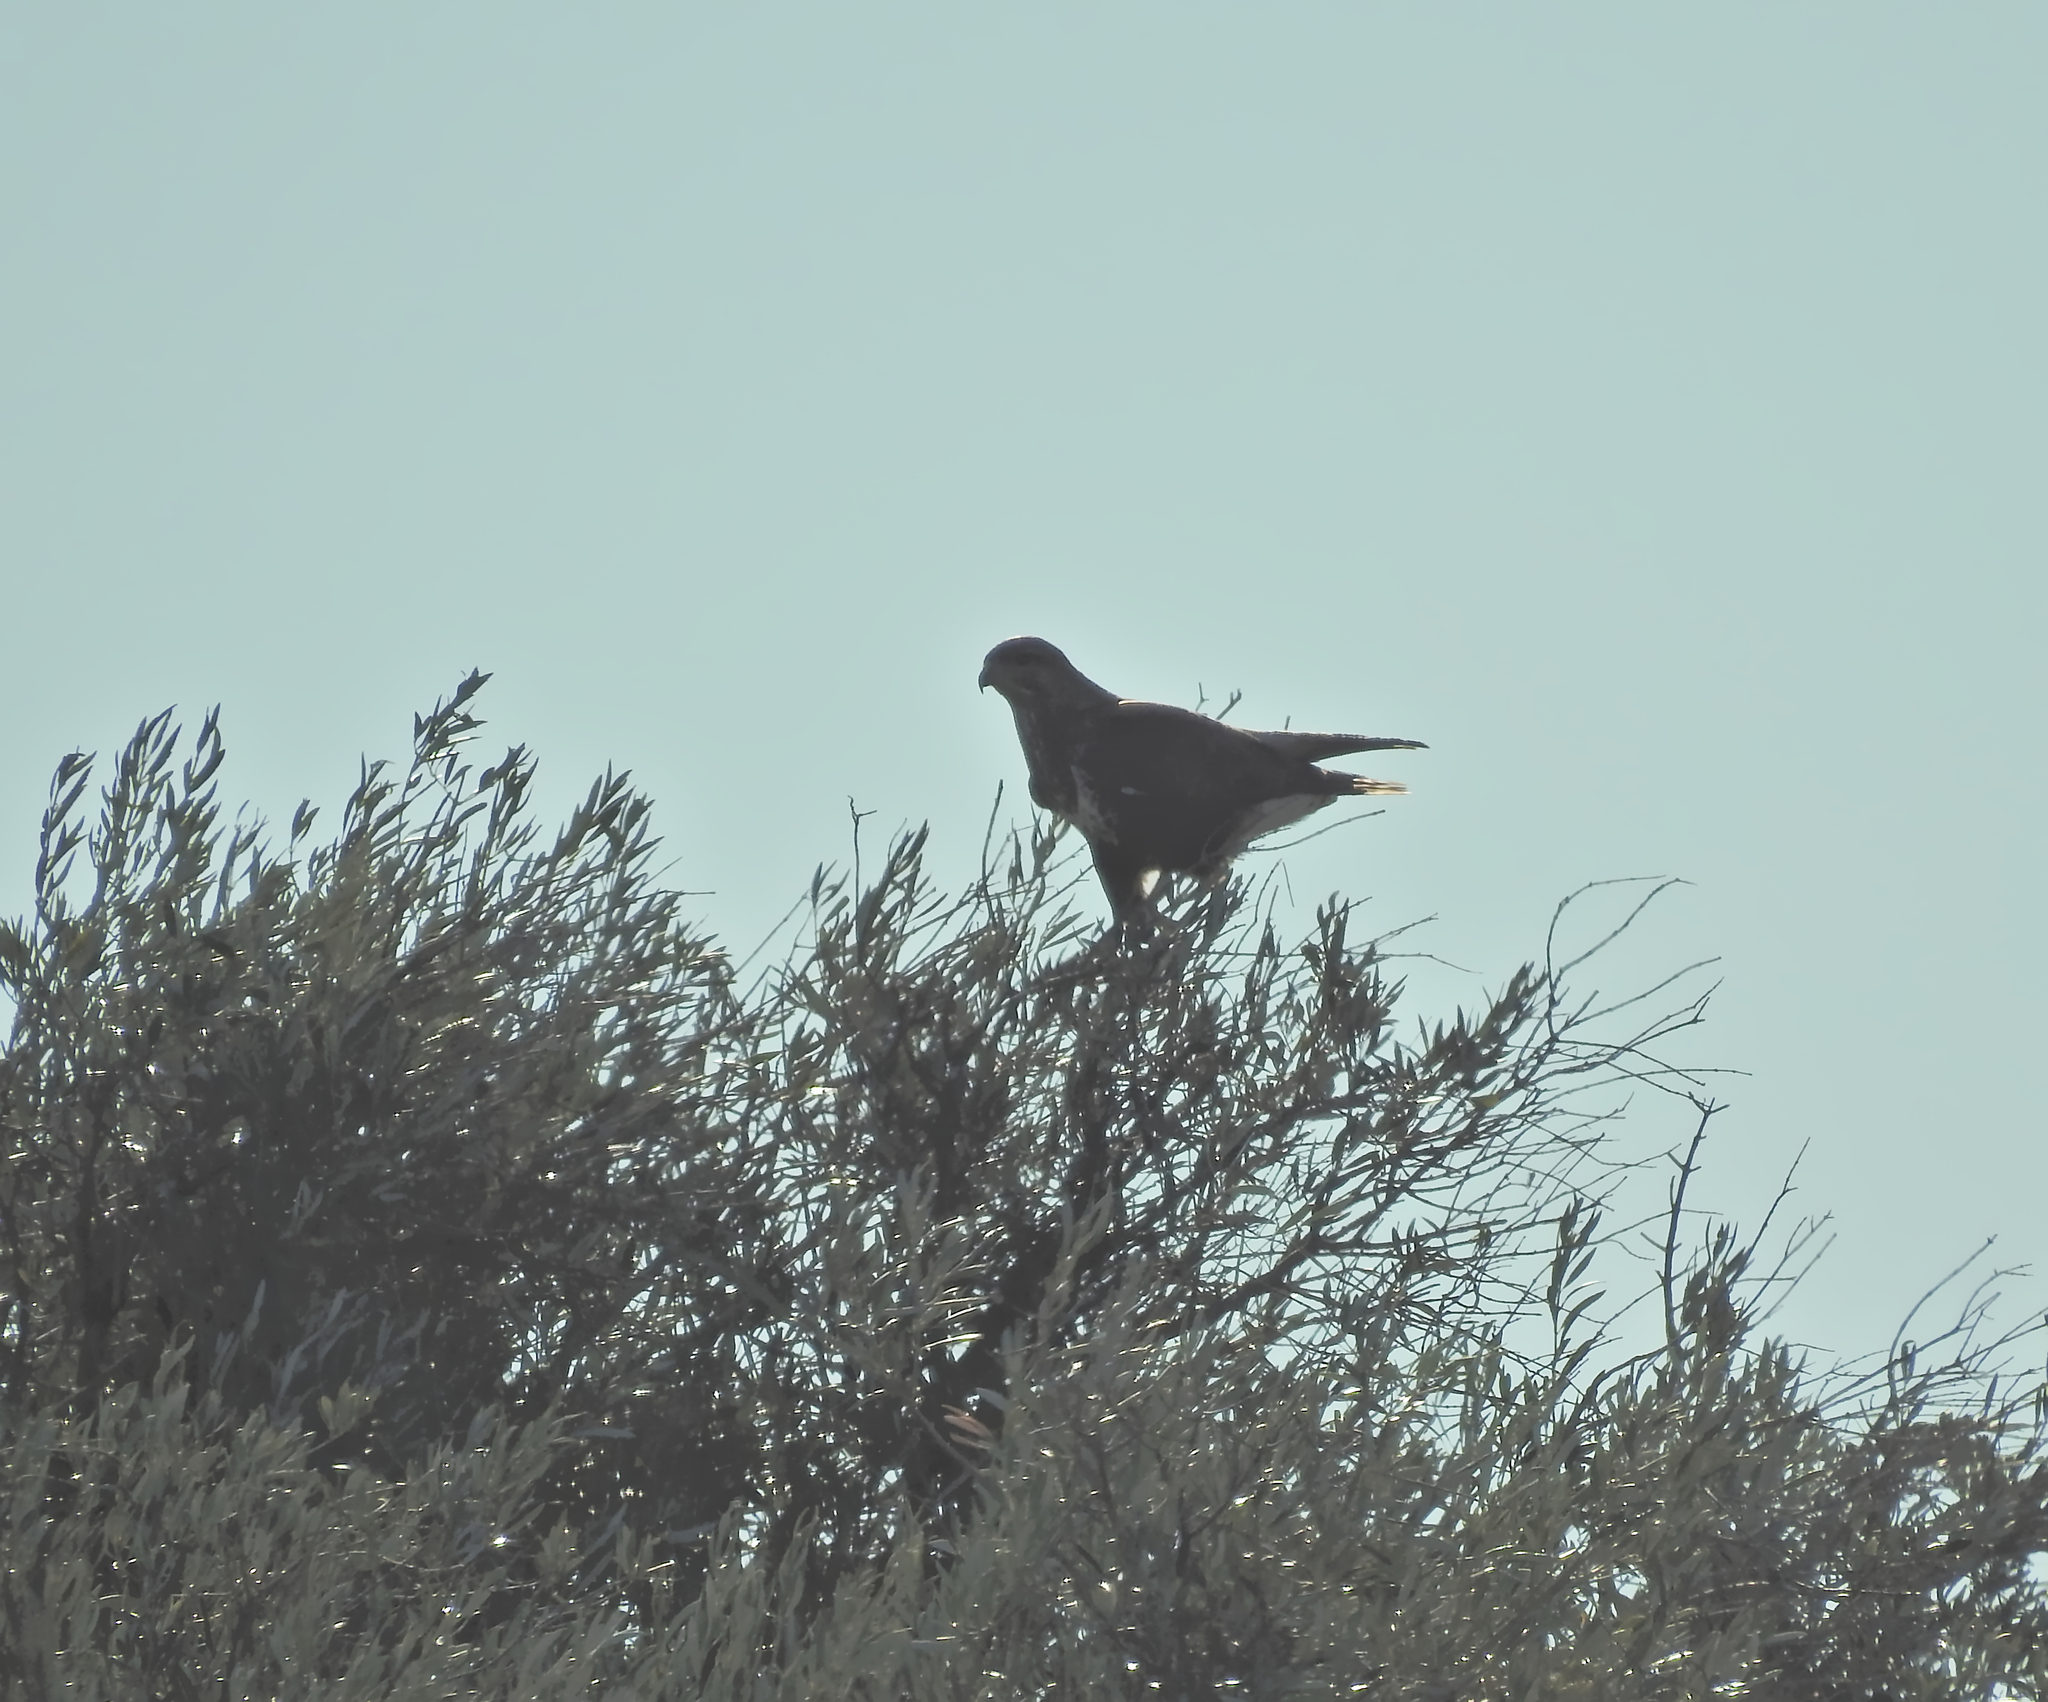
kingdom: Animalia
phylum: Chordata
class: Aves
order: Accipitriformes
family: Accipitridae
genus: Buteo
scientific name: Buteo buteo
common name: Common buzzard
